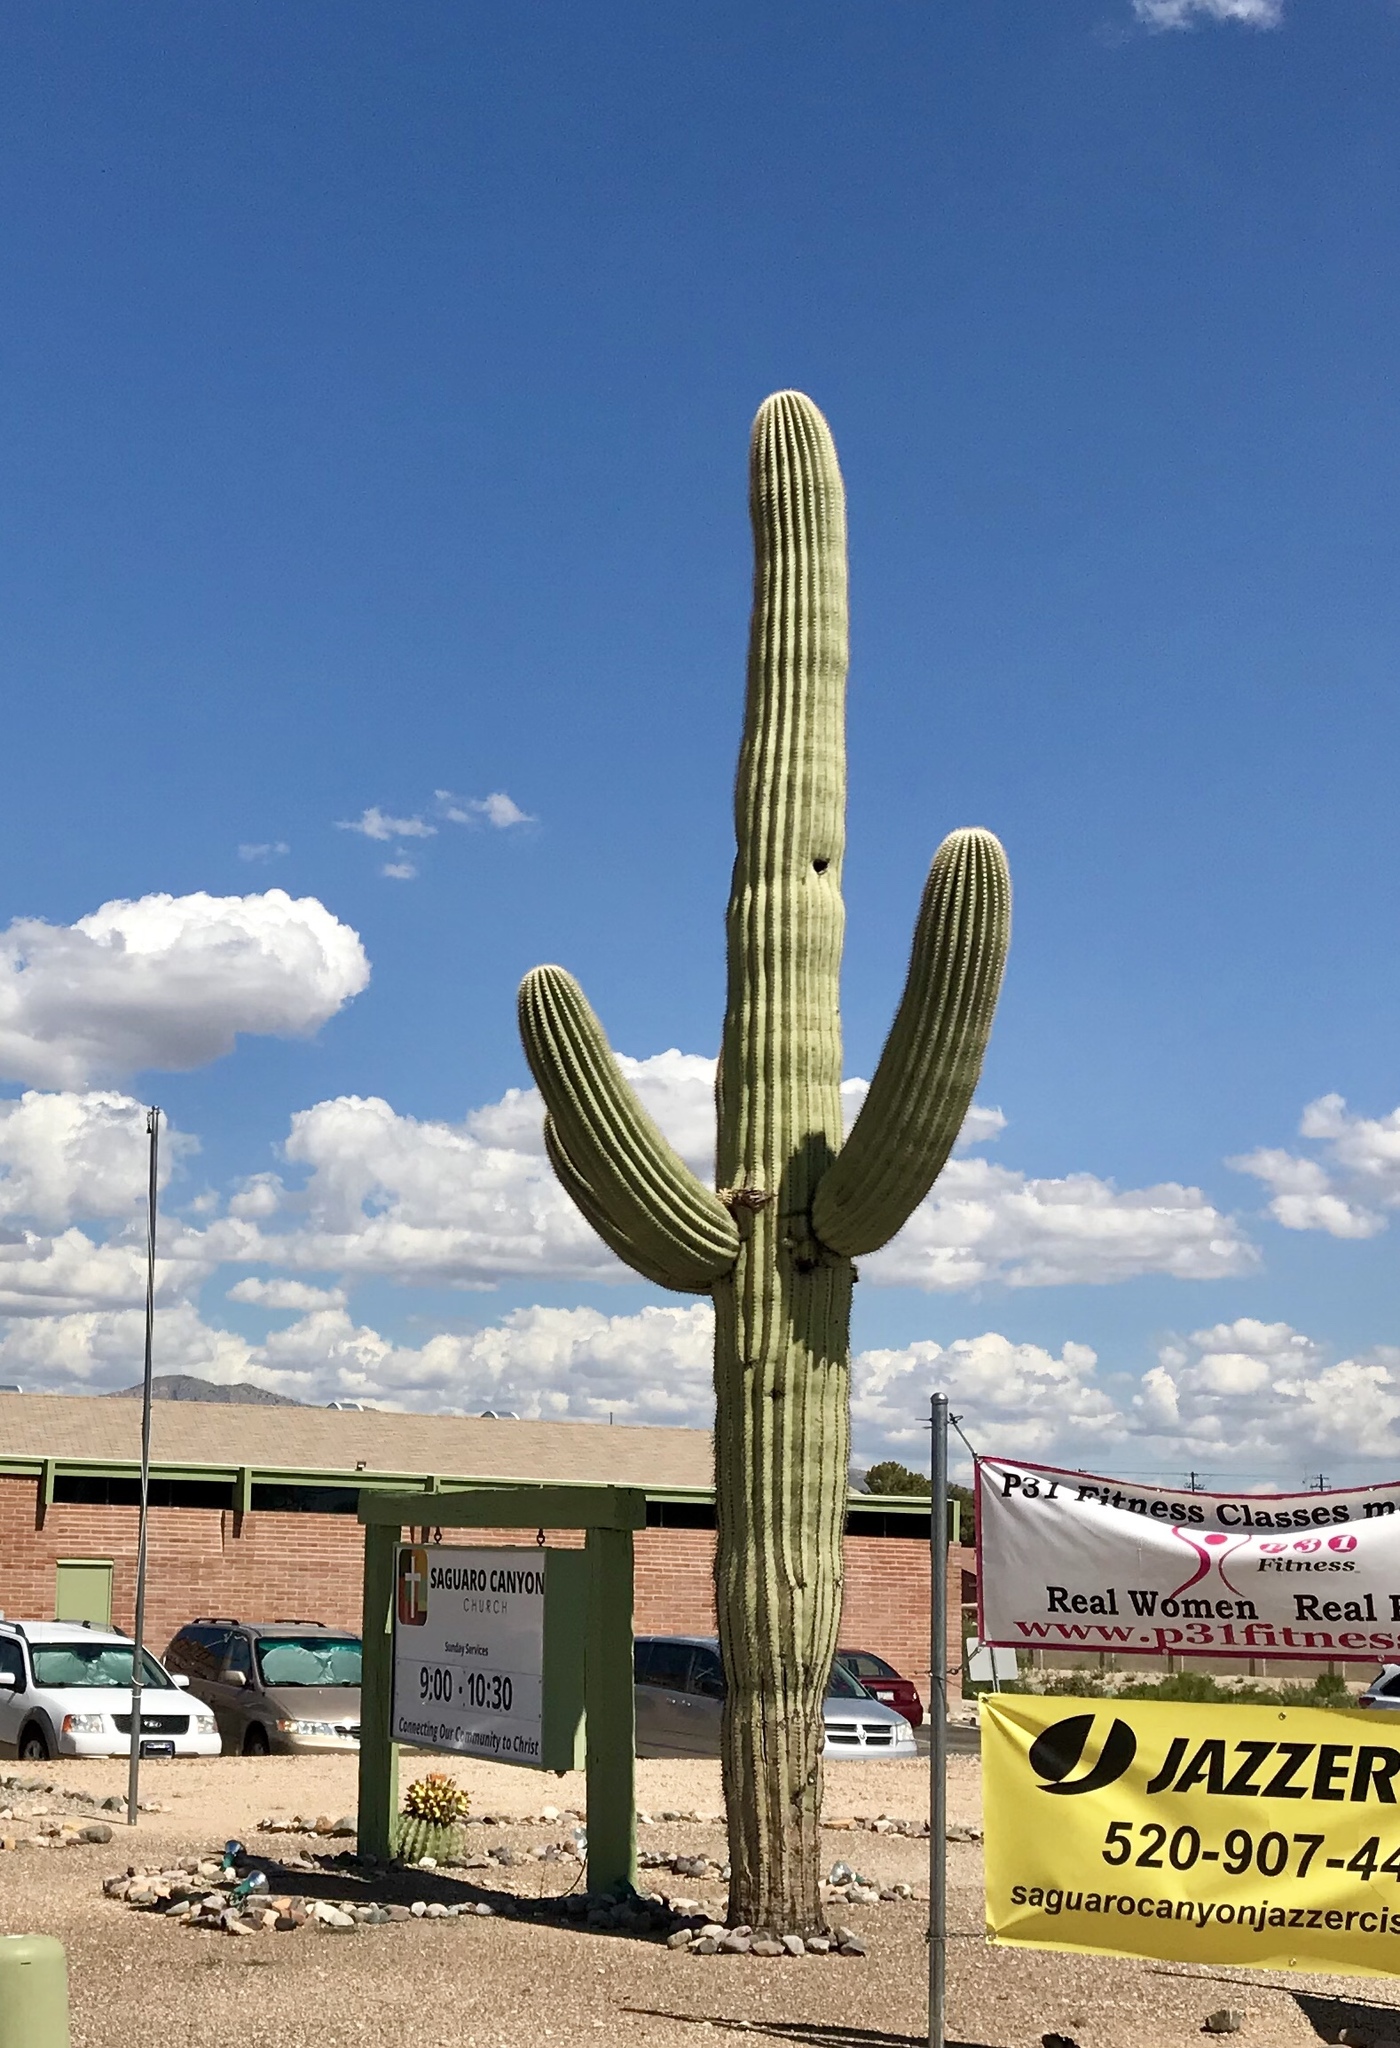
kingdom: Plantae
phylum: Tracheophyta
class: Magnoliopsida
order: Caryophyllales
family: Cactaceae
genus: Carnegiea
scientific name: Carnegiea gigantea
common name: Saguaro
